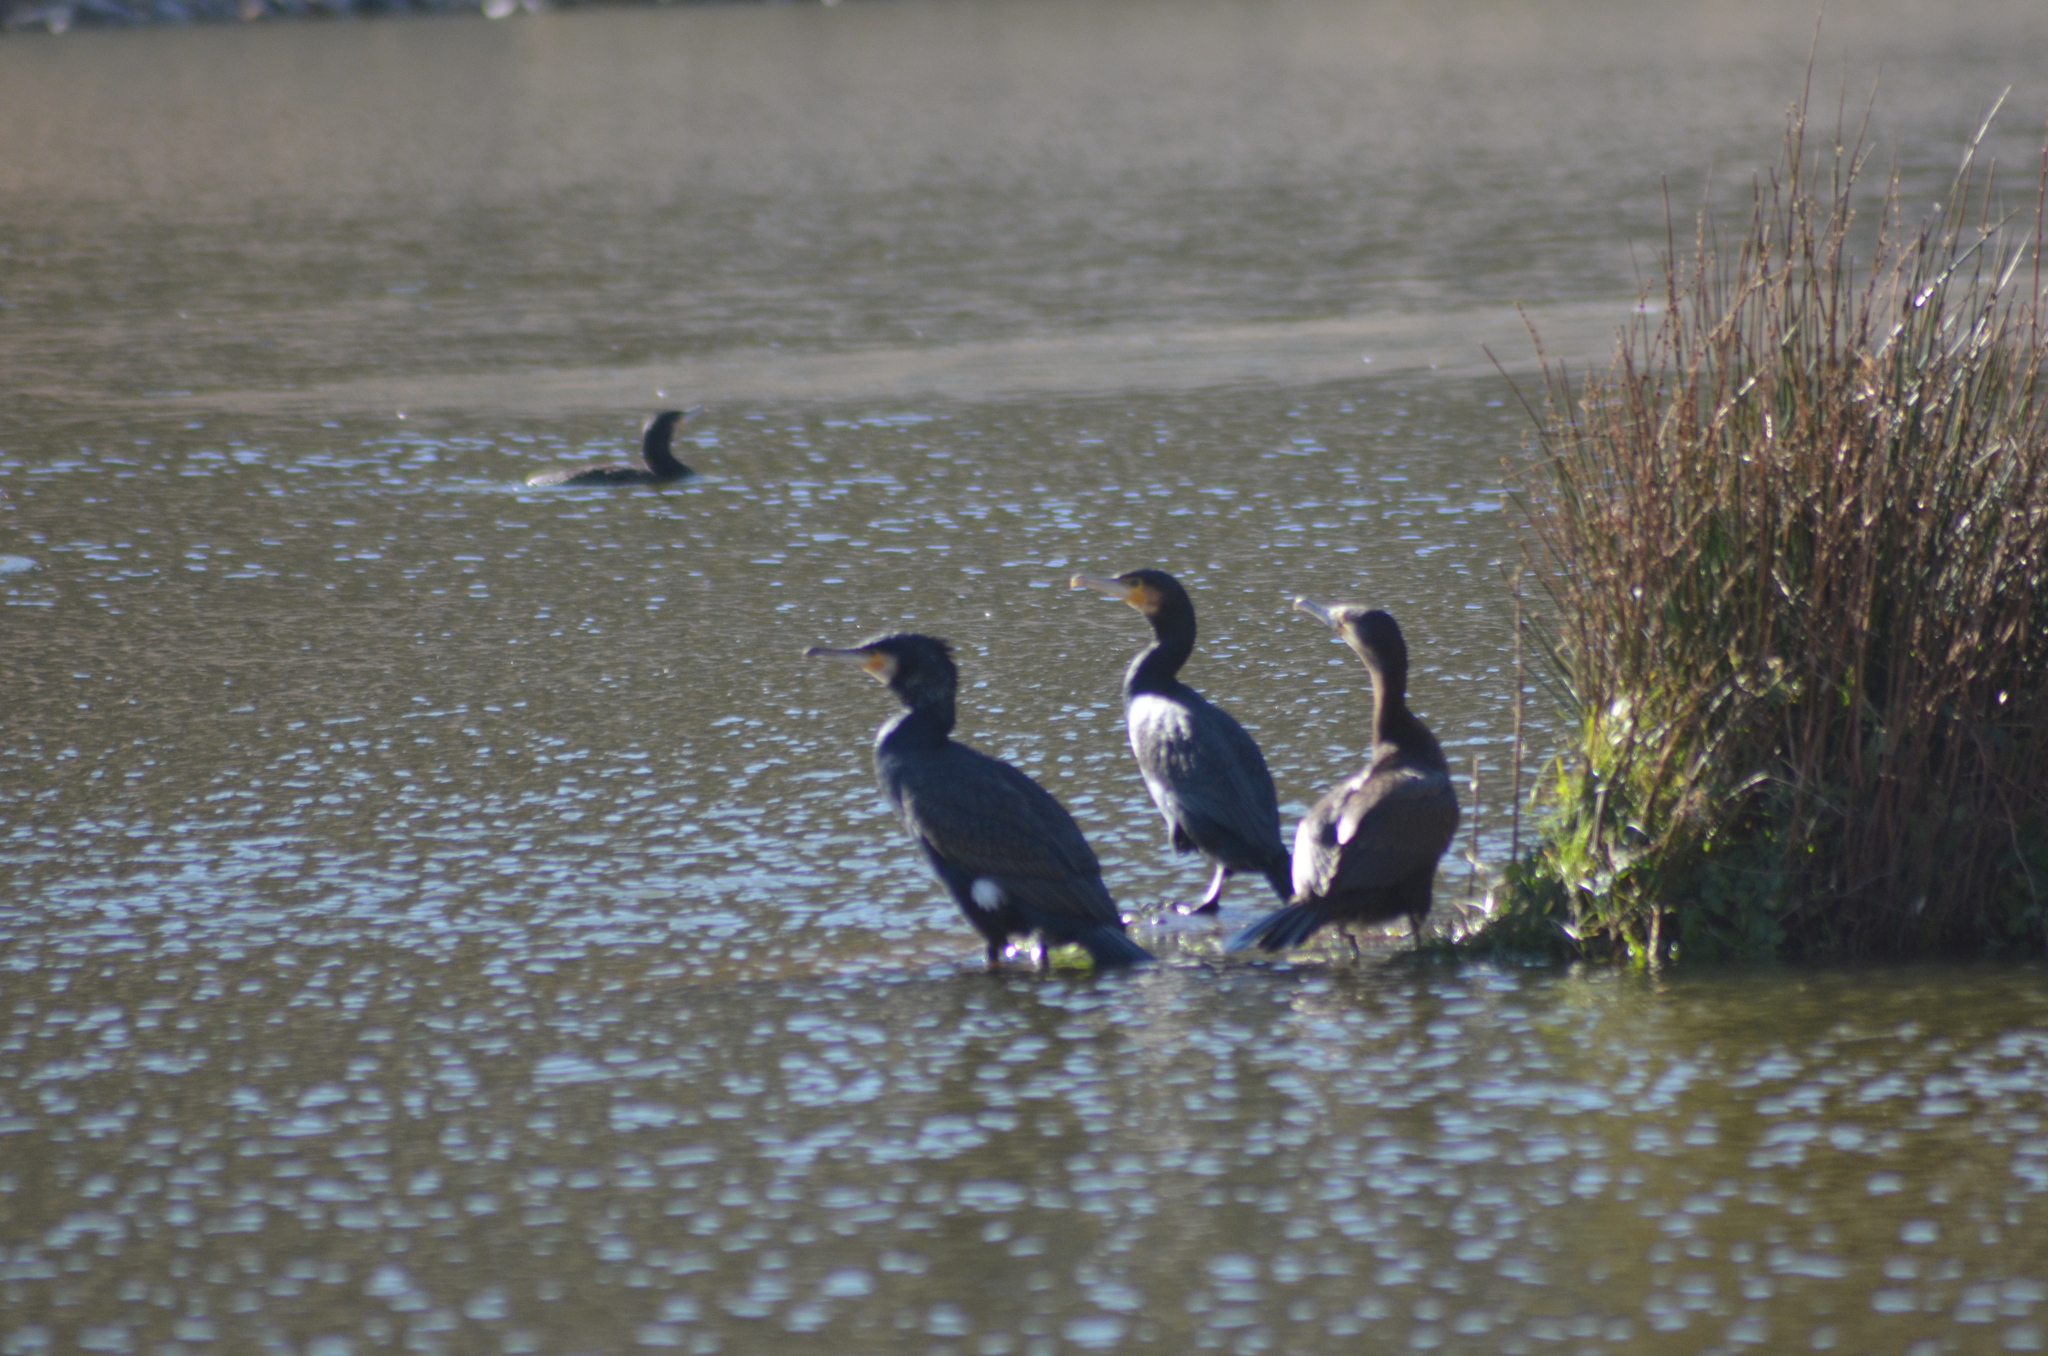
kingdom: Animalia
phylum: Chordata
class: Aves
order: Suliformes
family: Phalacrocoracidae
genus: Phalacrocorax
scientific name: Phalacrocorax carbo
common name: Great cormorant
